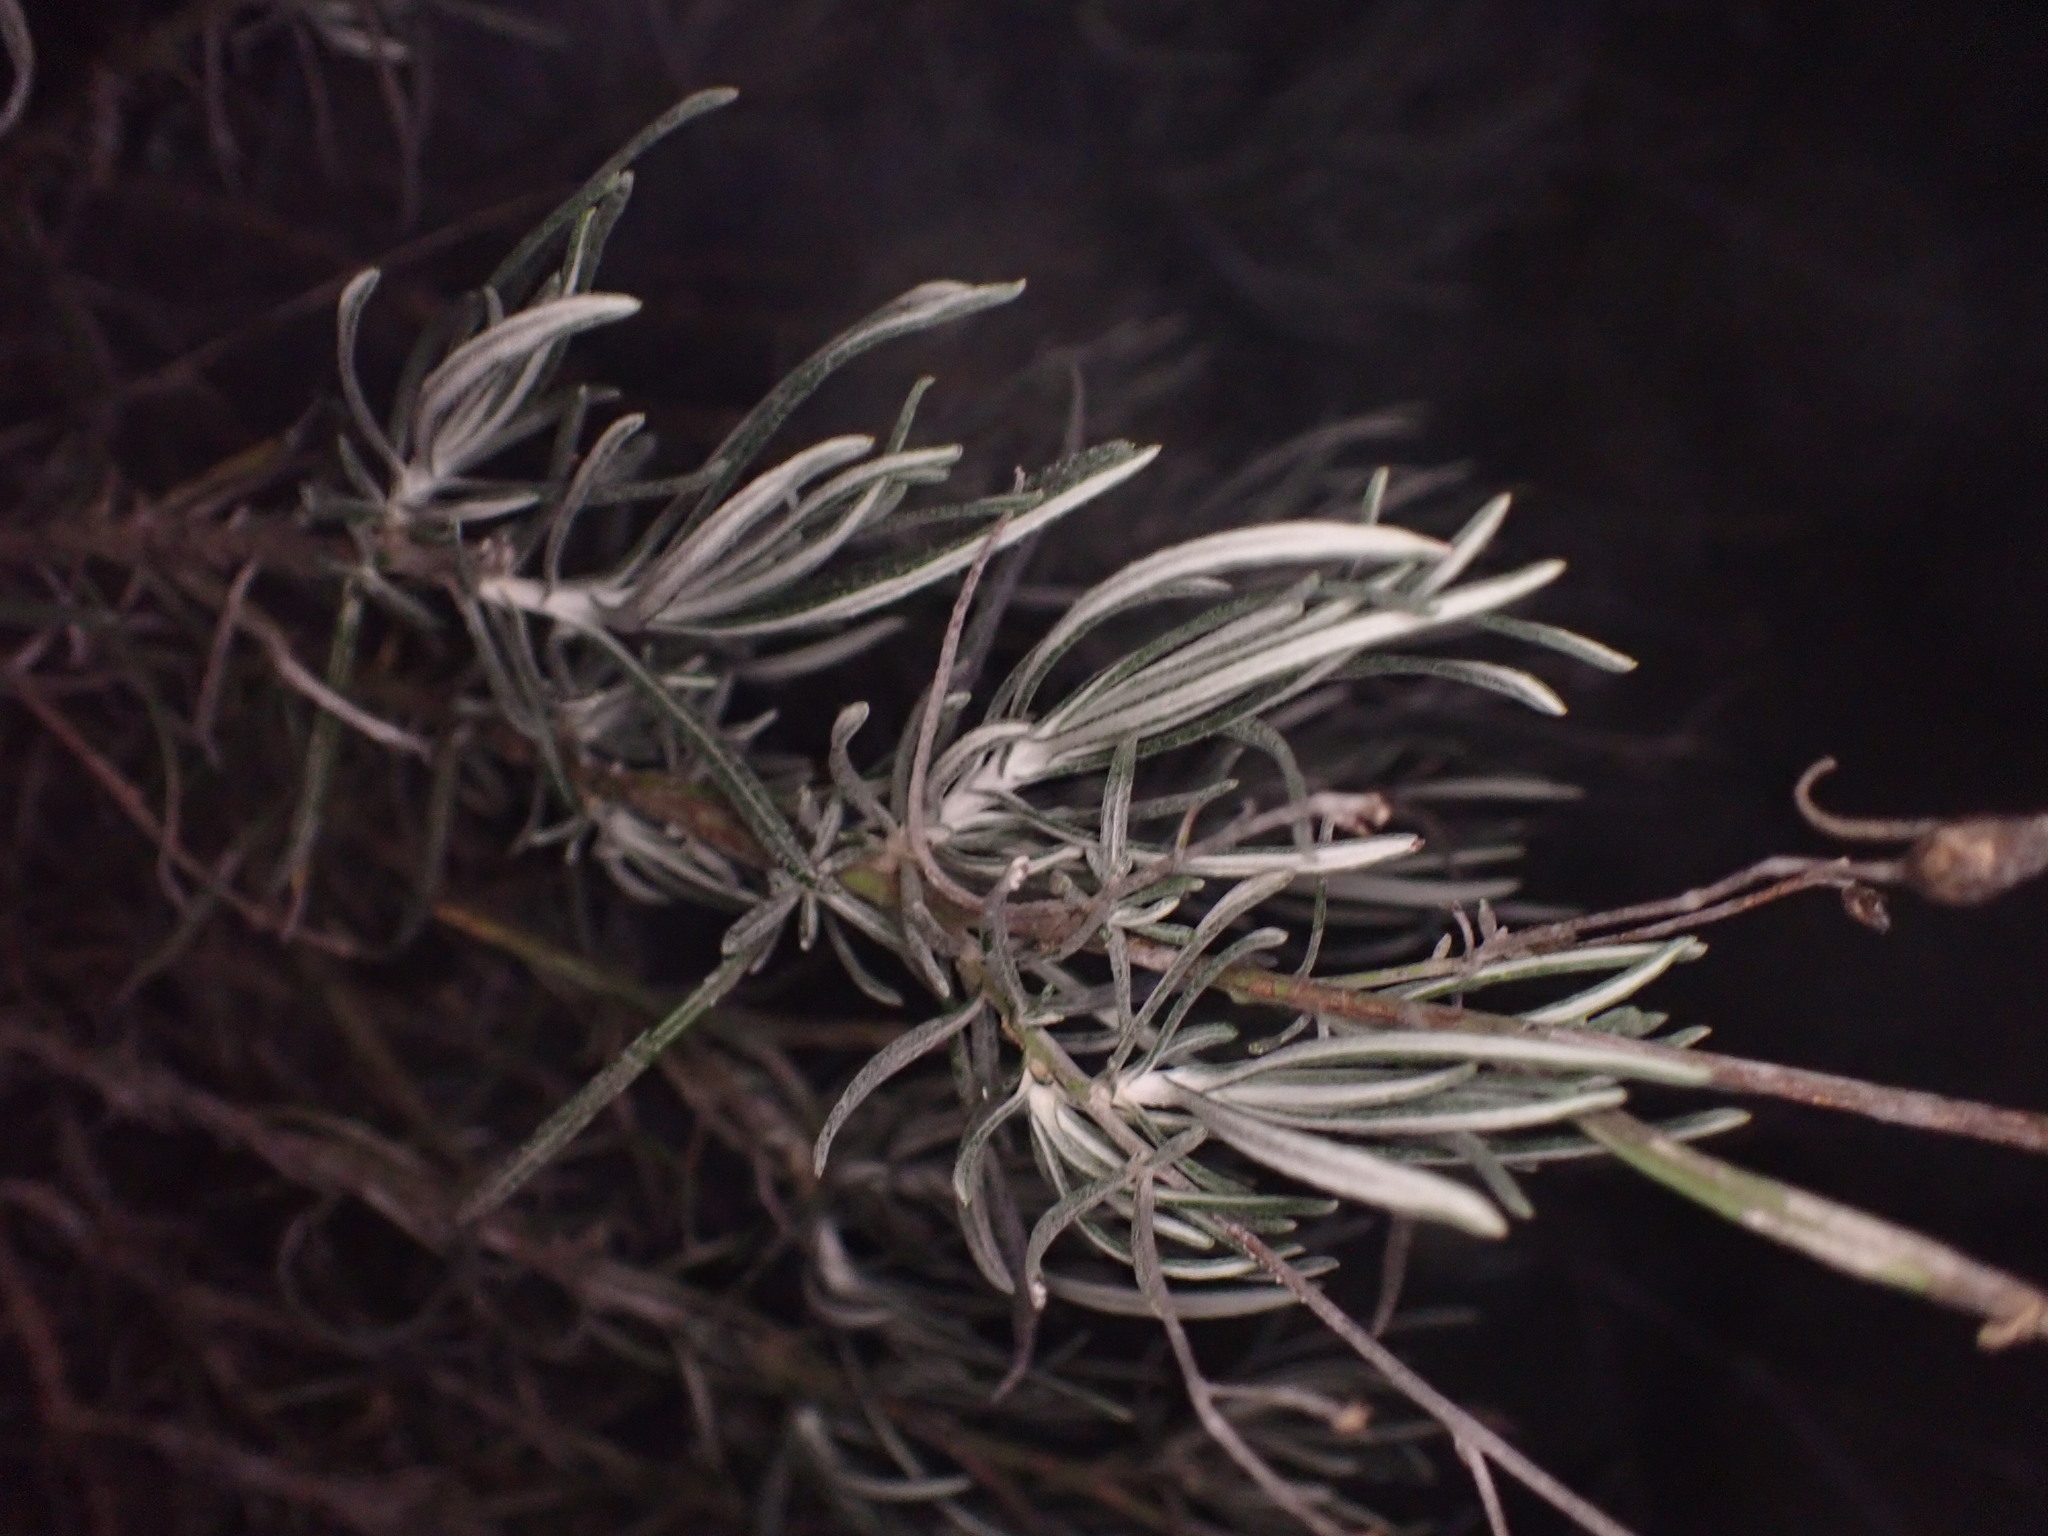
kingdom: Plantae
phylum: Tracheophyta
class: Magnoliopsida
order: Asterales
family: Asteraceae
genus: Phagnalon
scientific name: Phagnalon sordidum
